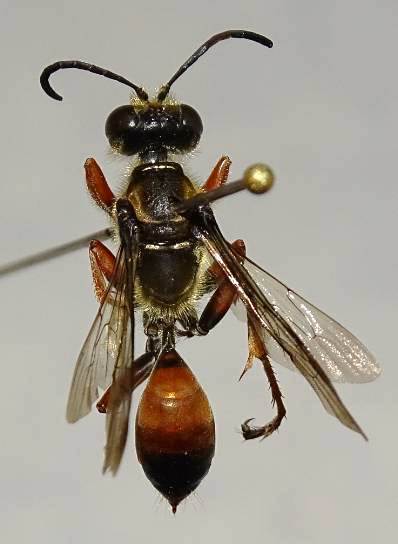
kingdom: Animalia
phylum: Arthropoda
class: Insecta
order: Hymenoptera
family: Sphecidae
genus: Sphex
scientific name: Sphex ichneumoneus
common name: Great golden digger wasp
